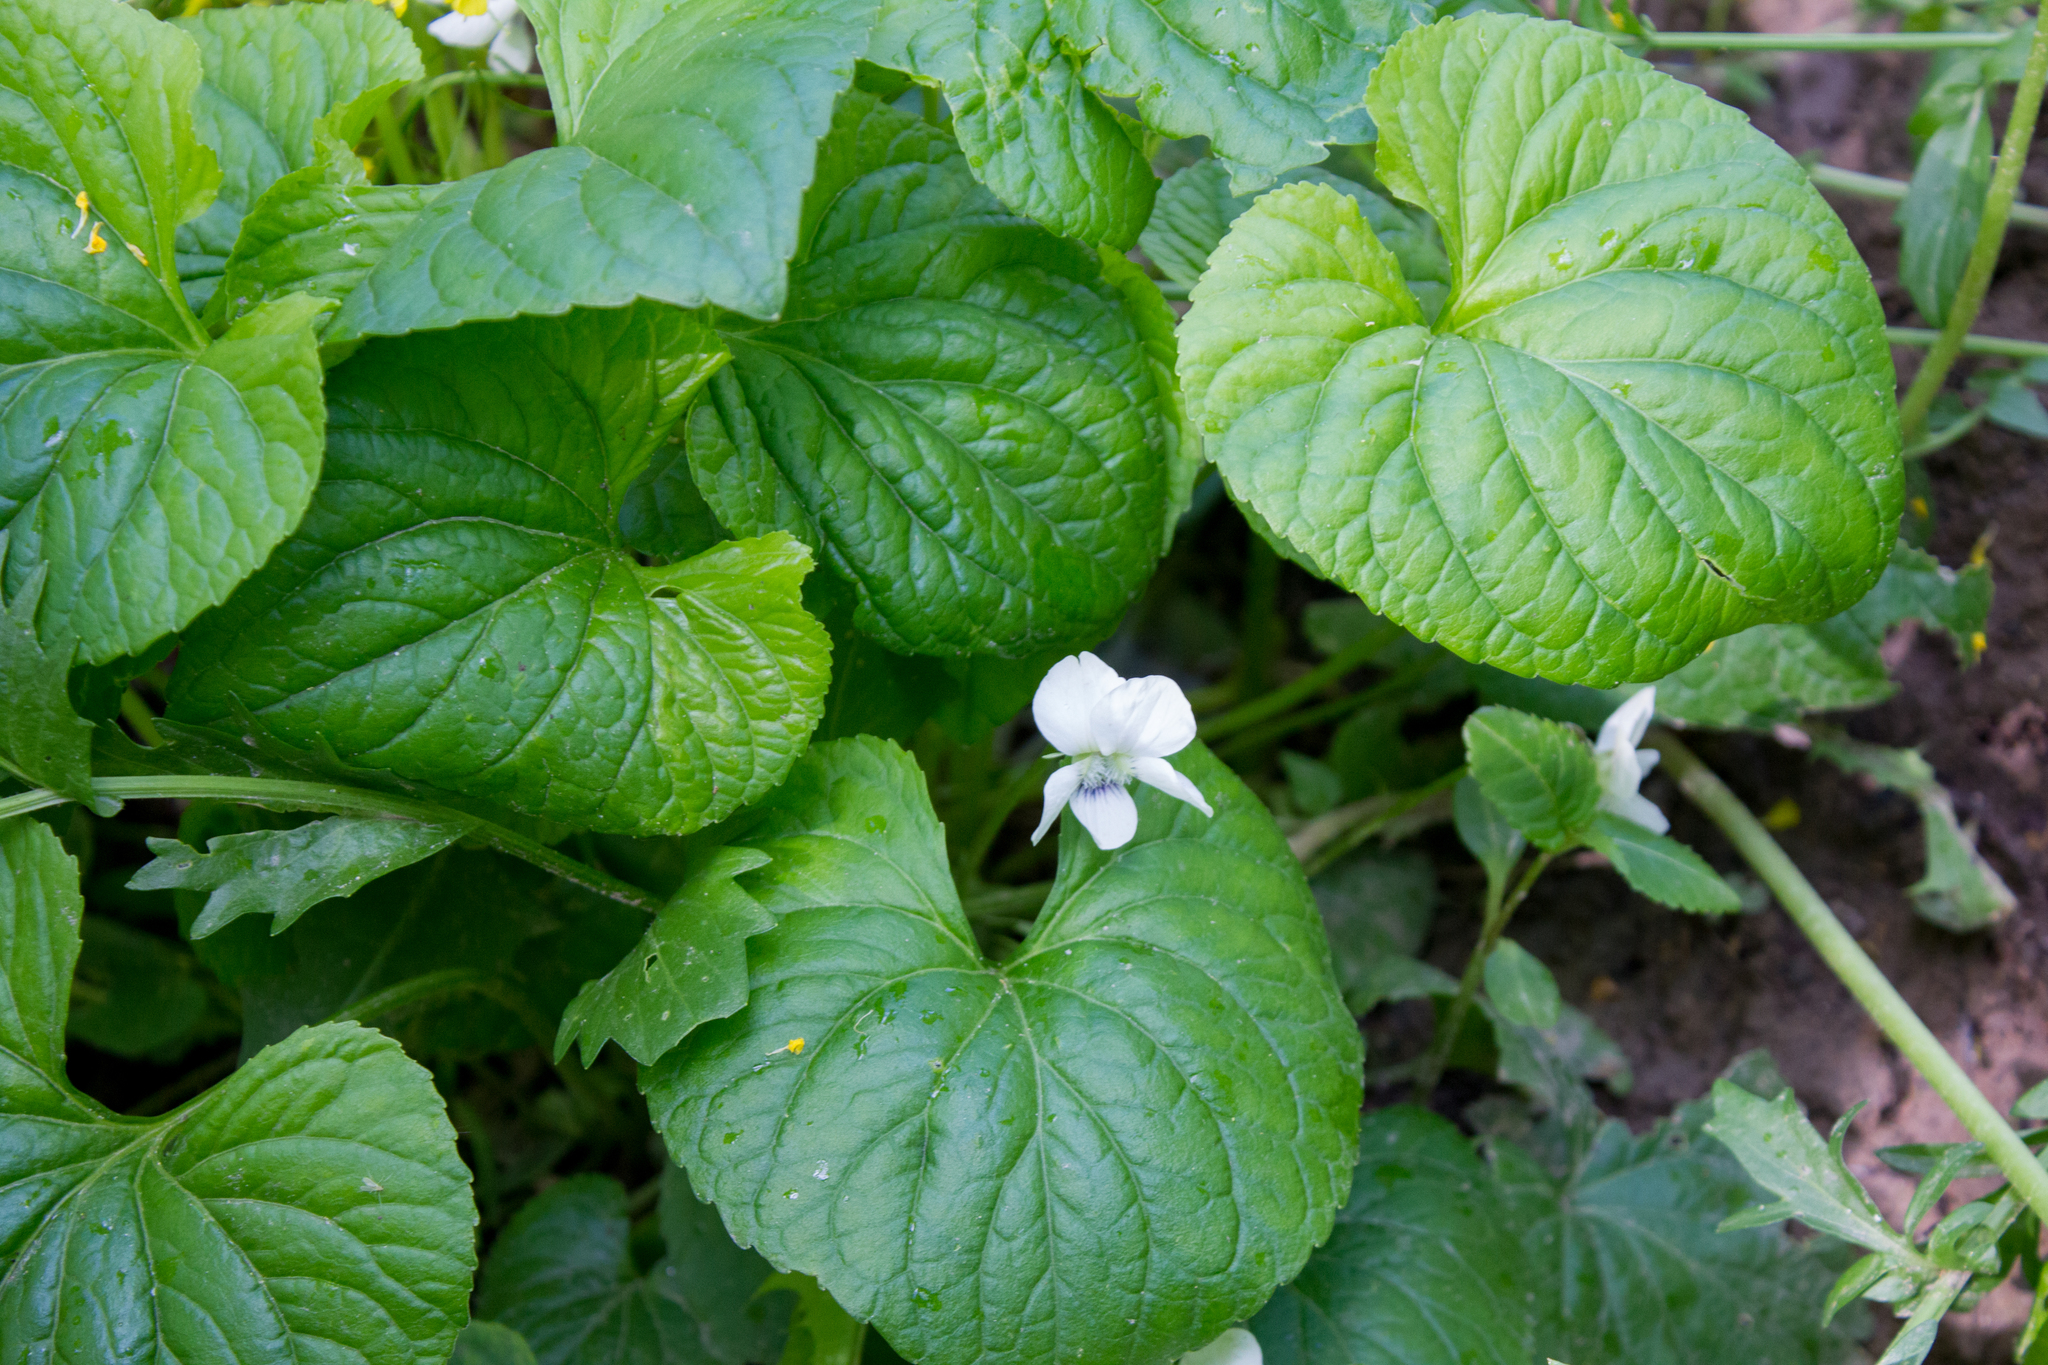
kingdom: Plantae
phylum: Tracheophyta
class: Magnoliopsida
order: Malpighiales
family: Violaceae
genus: Viola
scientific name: Viola mirabilis
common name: Wonder violet
